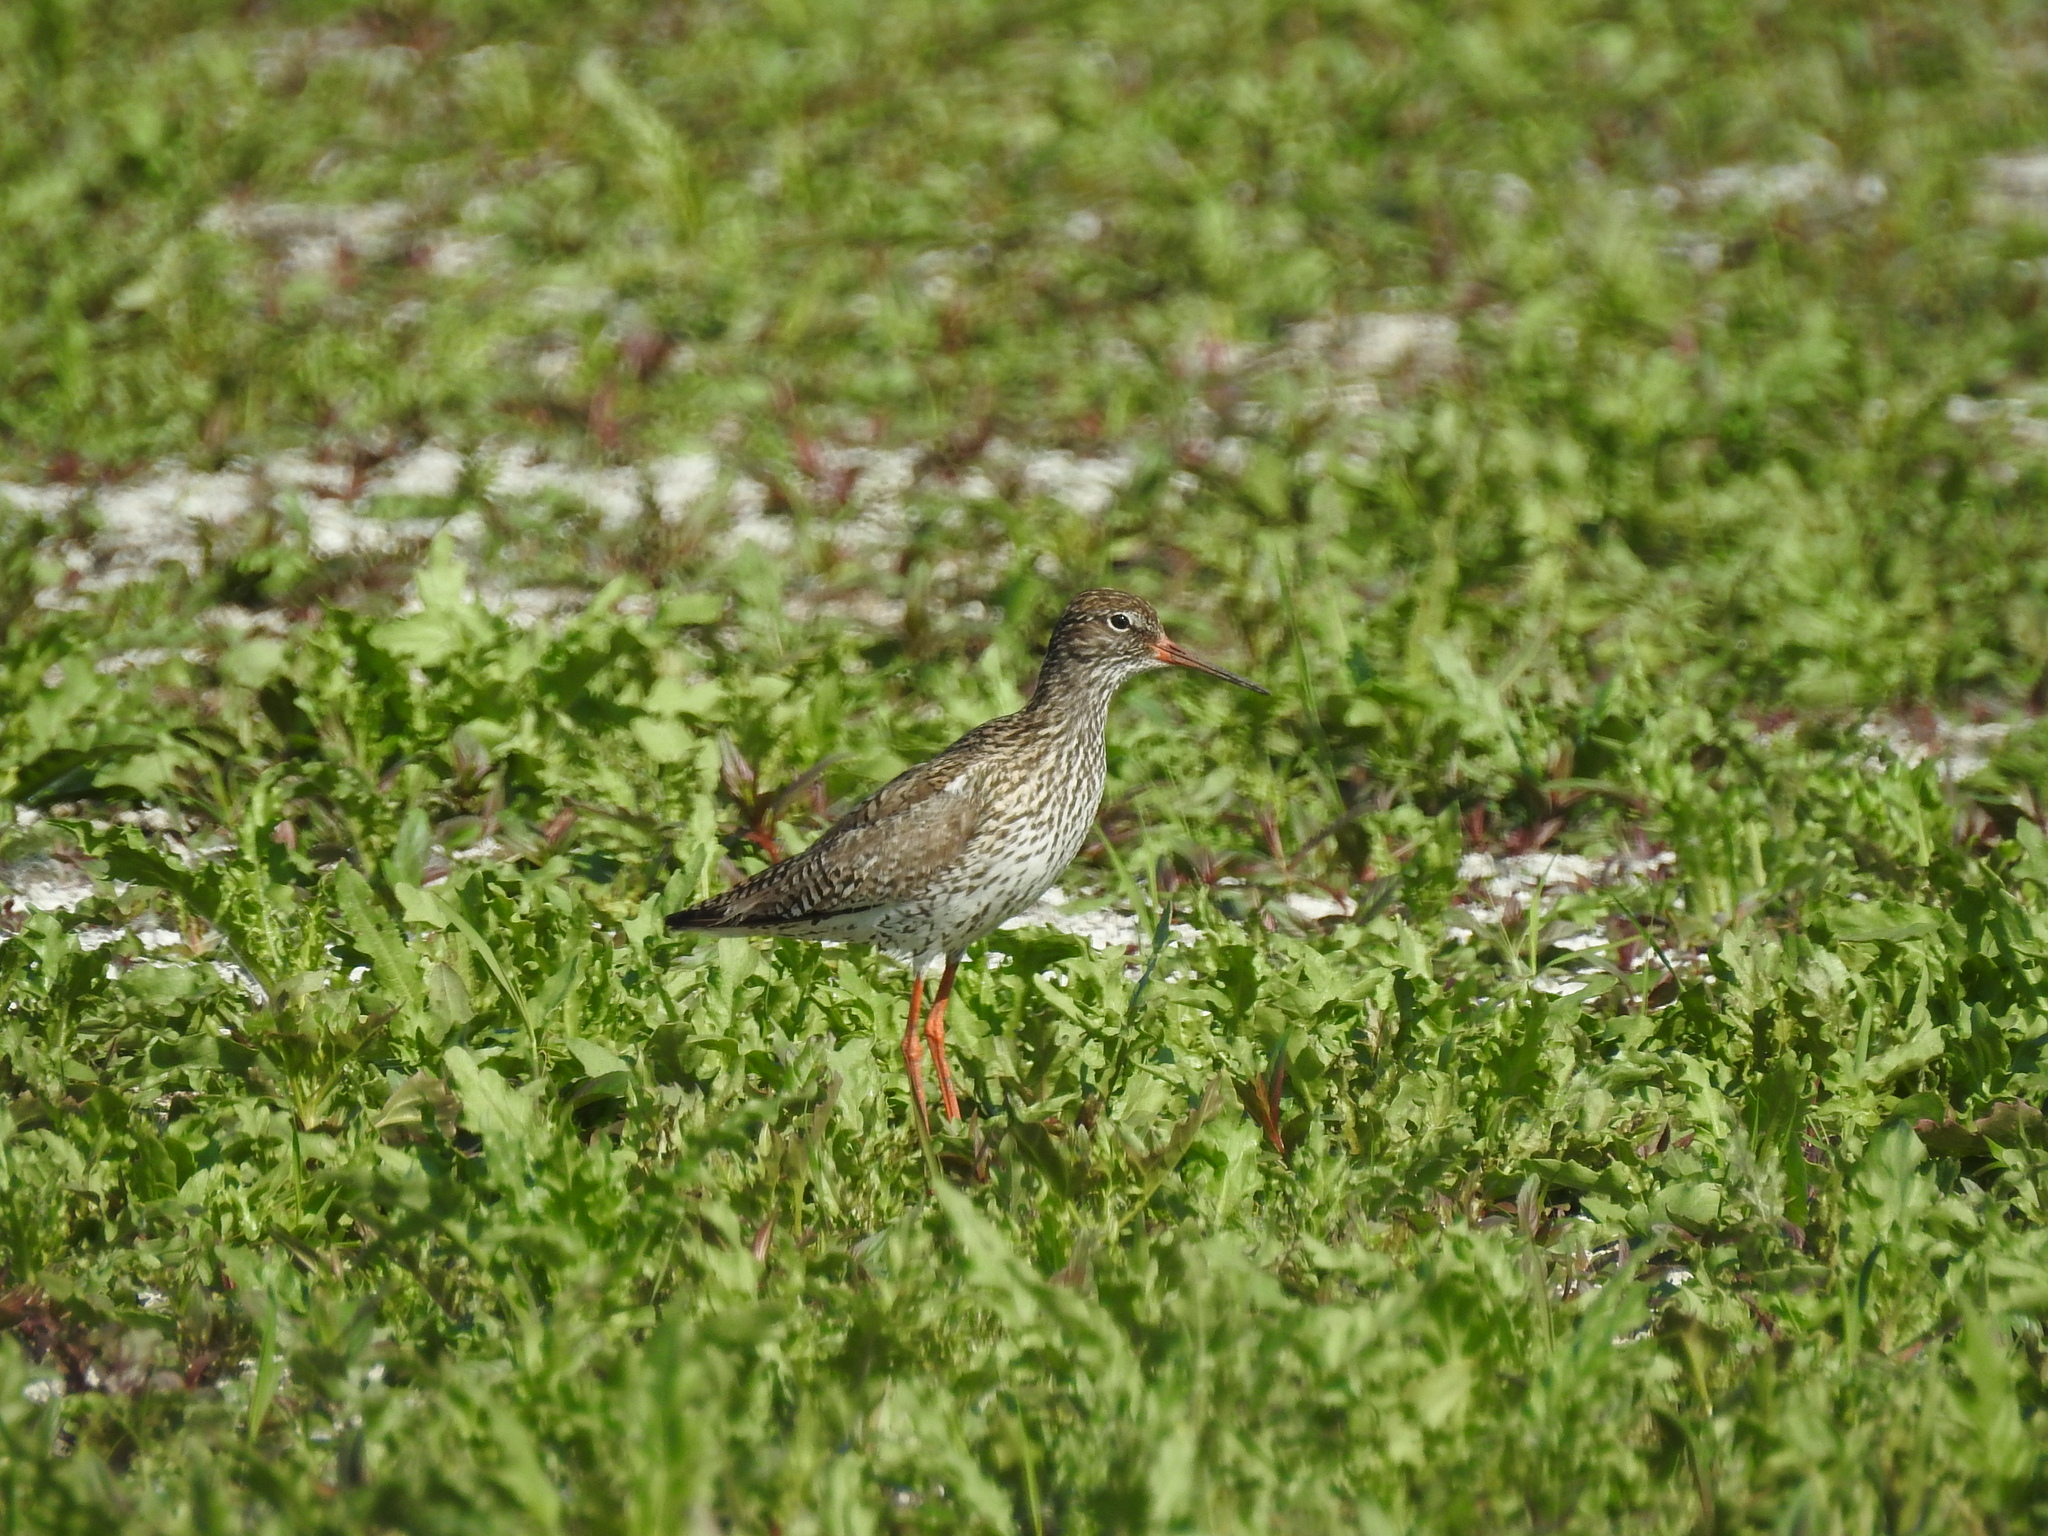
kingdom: Animalia
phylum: Chordata
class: Aves
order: Charadriiformes
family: Scolopacidae
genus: Tringa
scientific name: Tringa totanus
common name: Common redshank
